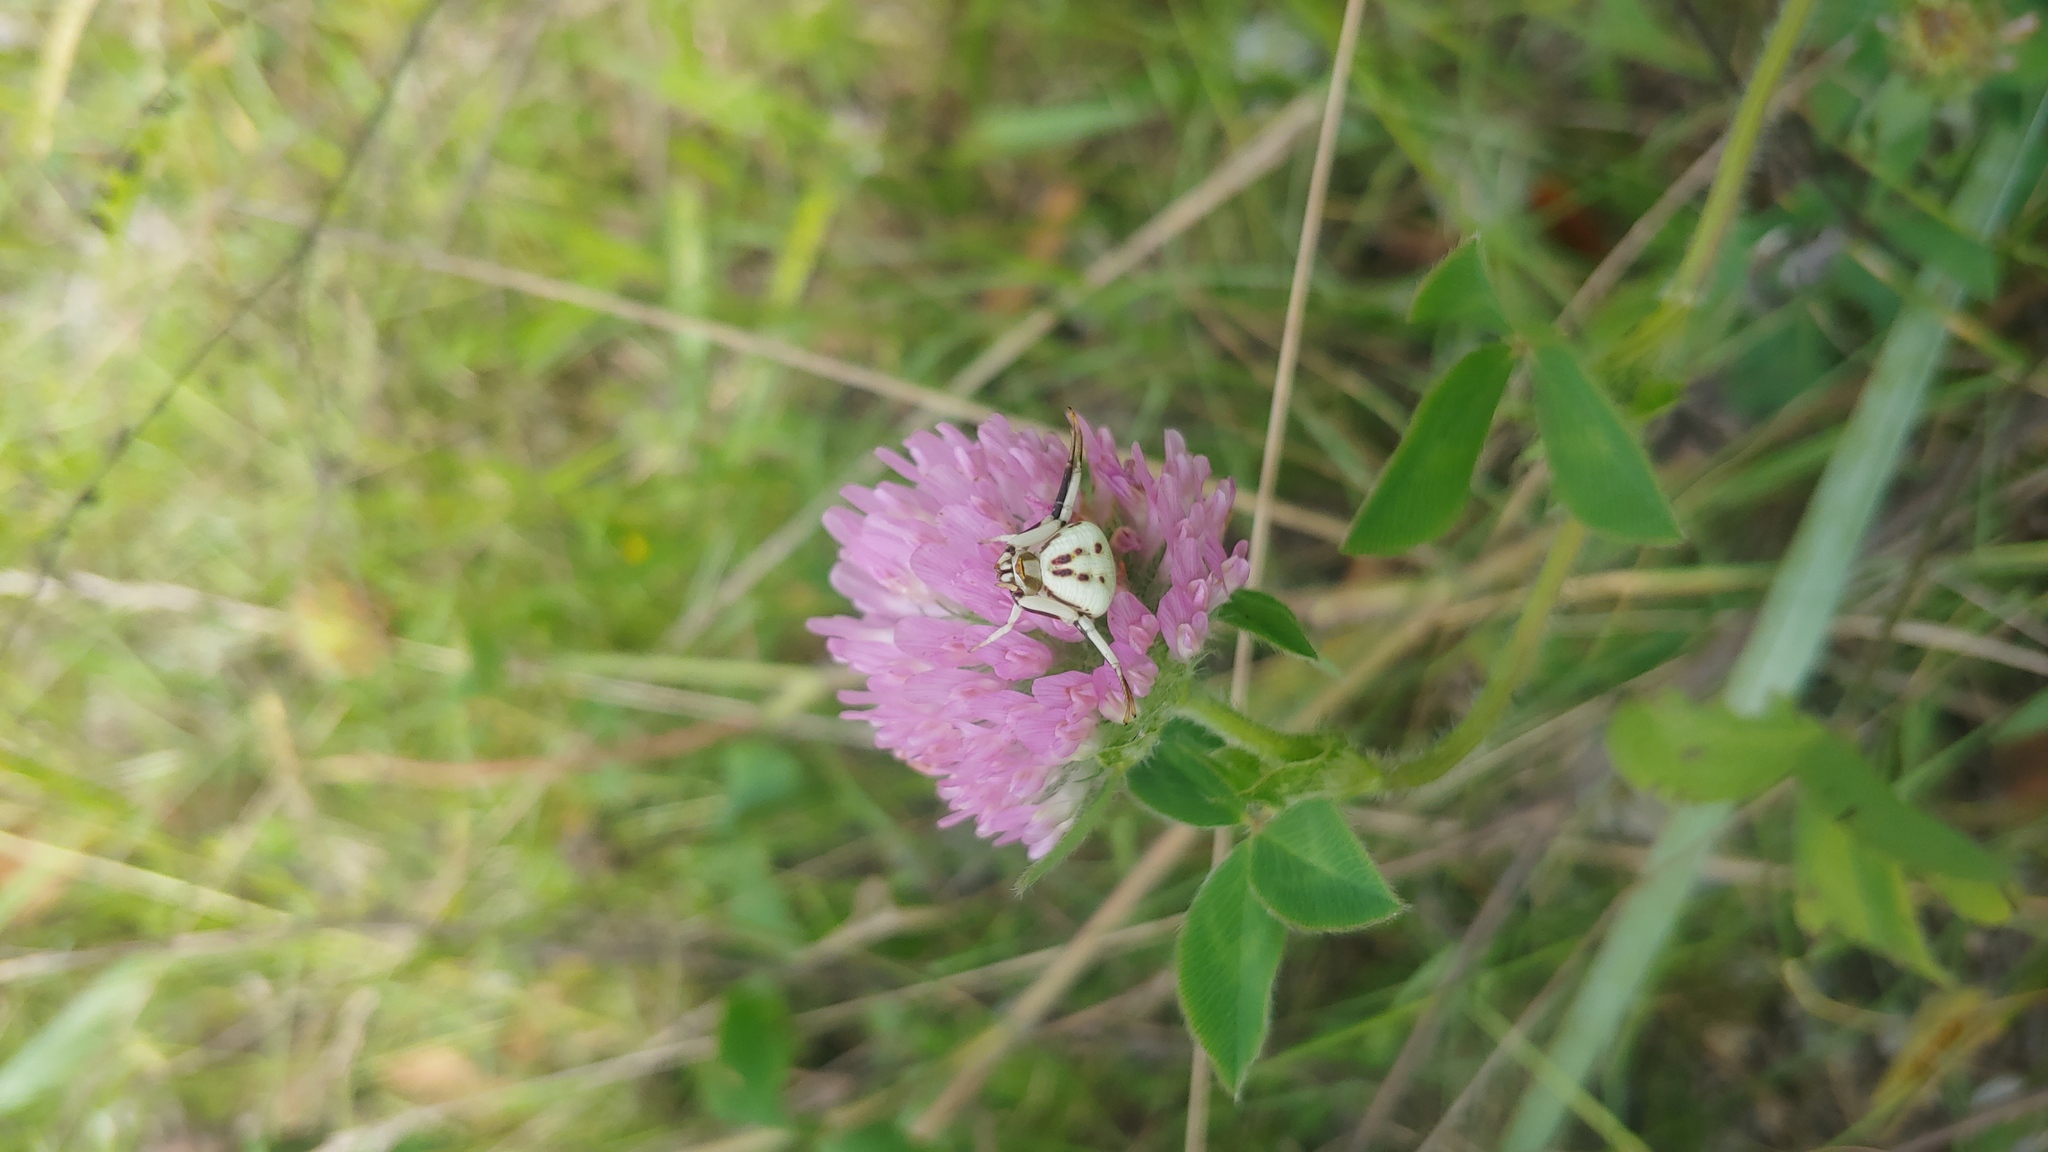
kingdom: Animalia
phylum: Arthropoda
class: Arachnida
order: Araneae
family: Thomisidae
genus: Misumenoides
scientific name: Misumenoides formosipes
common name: White-banded crab spider
